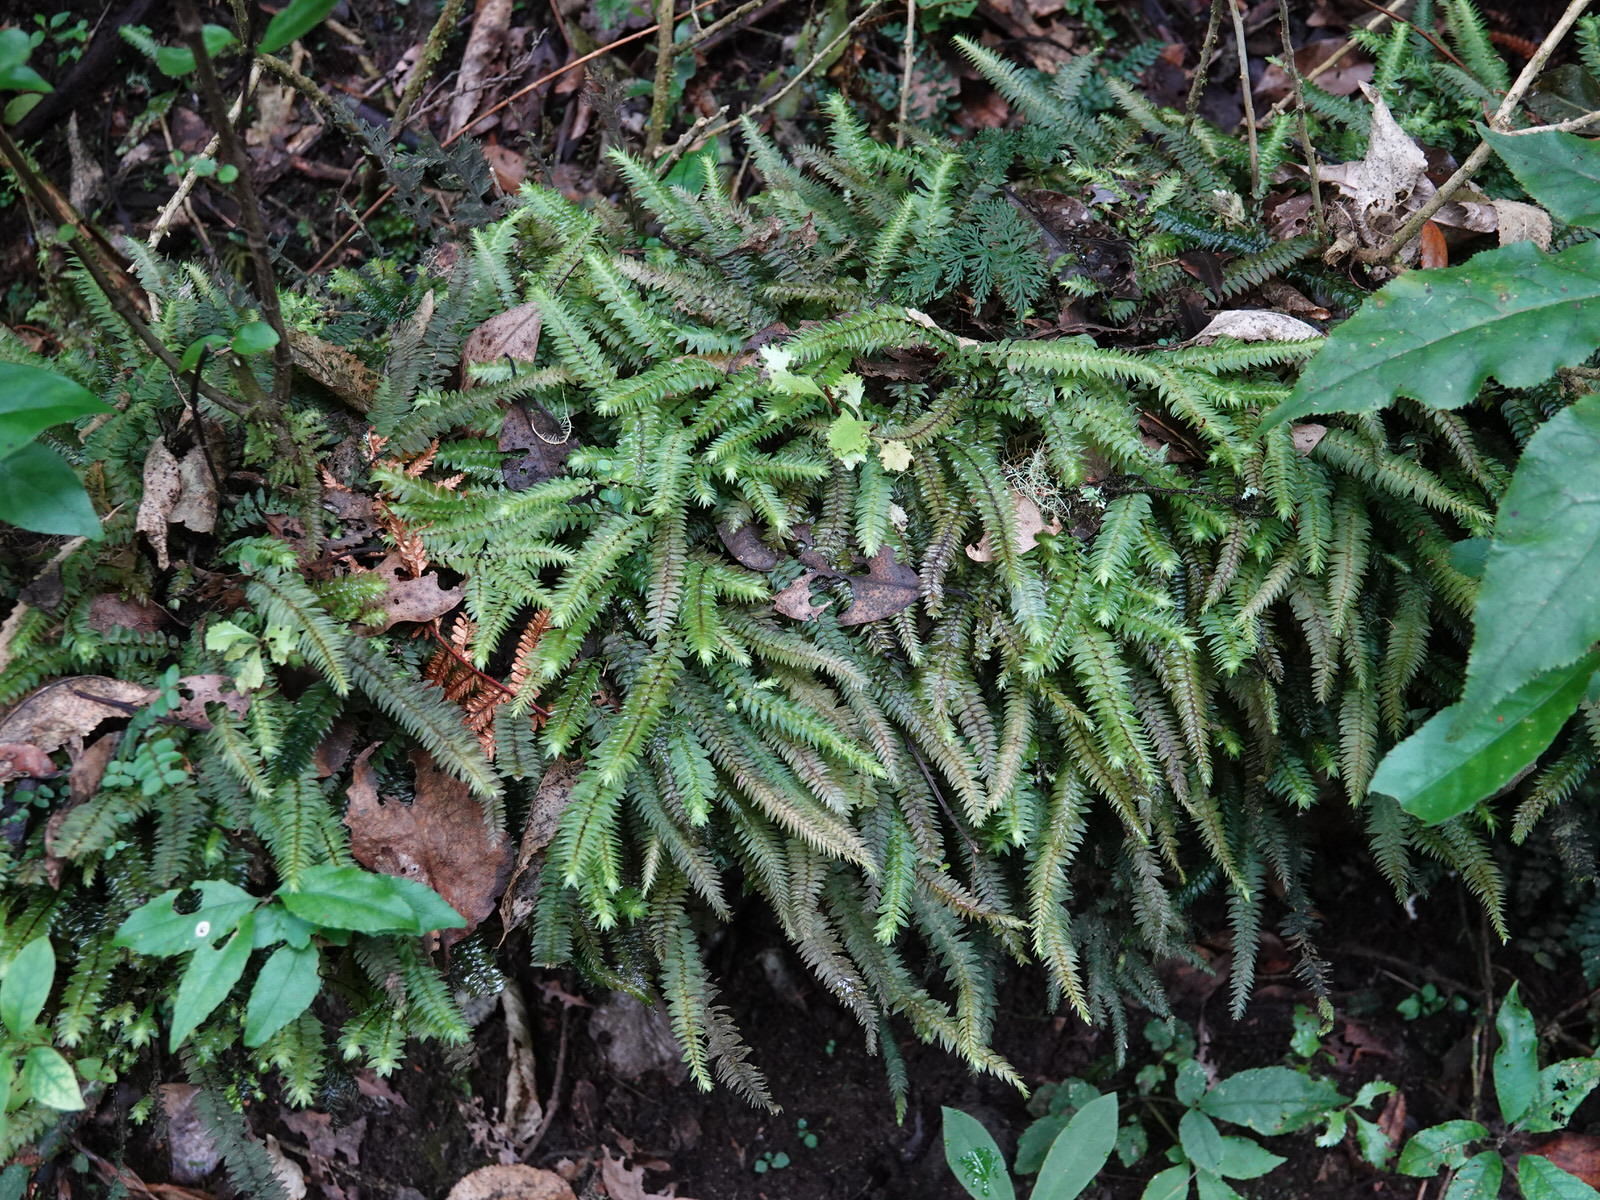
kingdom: Plantae
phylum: Bryophyta
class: Bryopsida
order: Hypopterygiales
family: Hypopterygiaceae
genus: Cyathophorum
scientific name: Cyathophorum bulbosum
